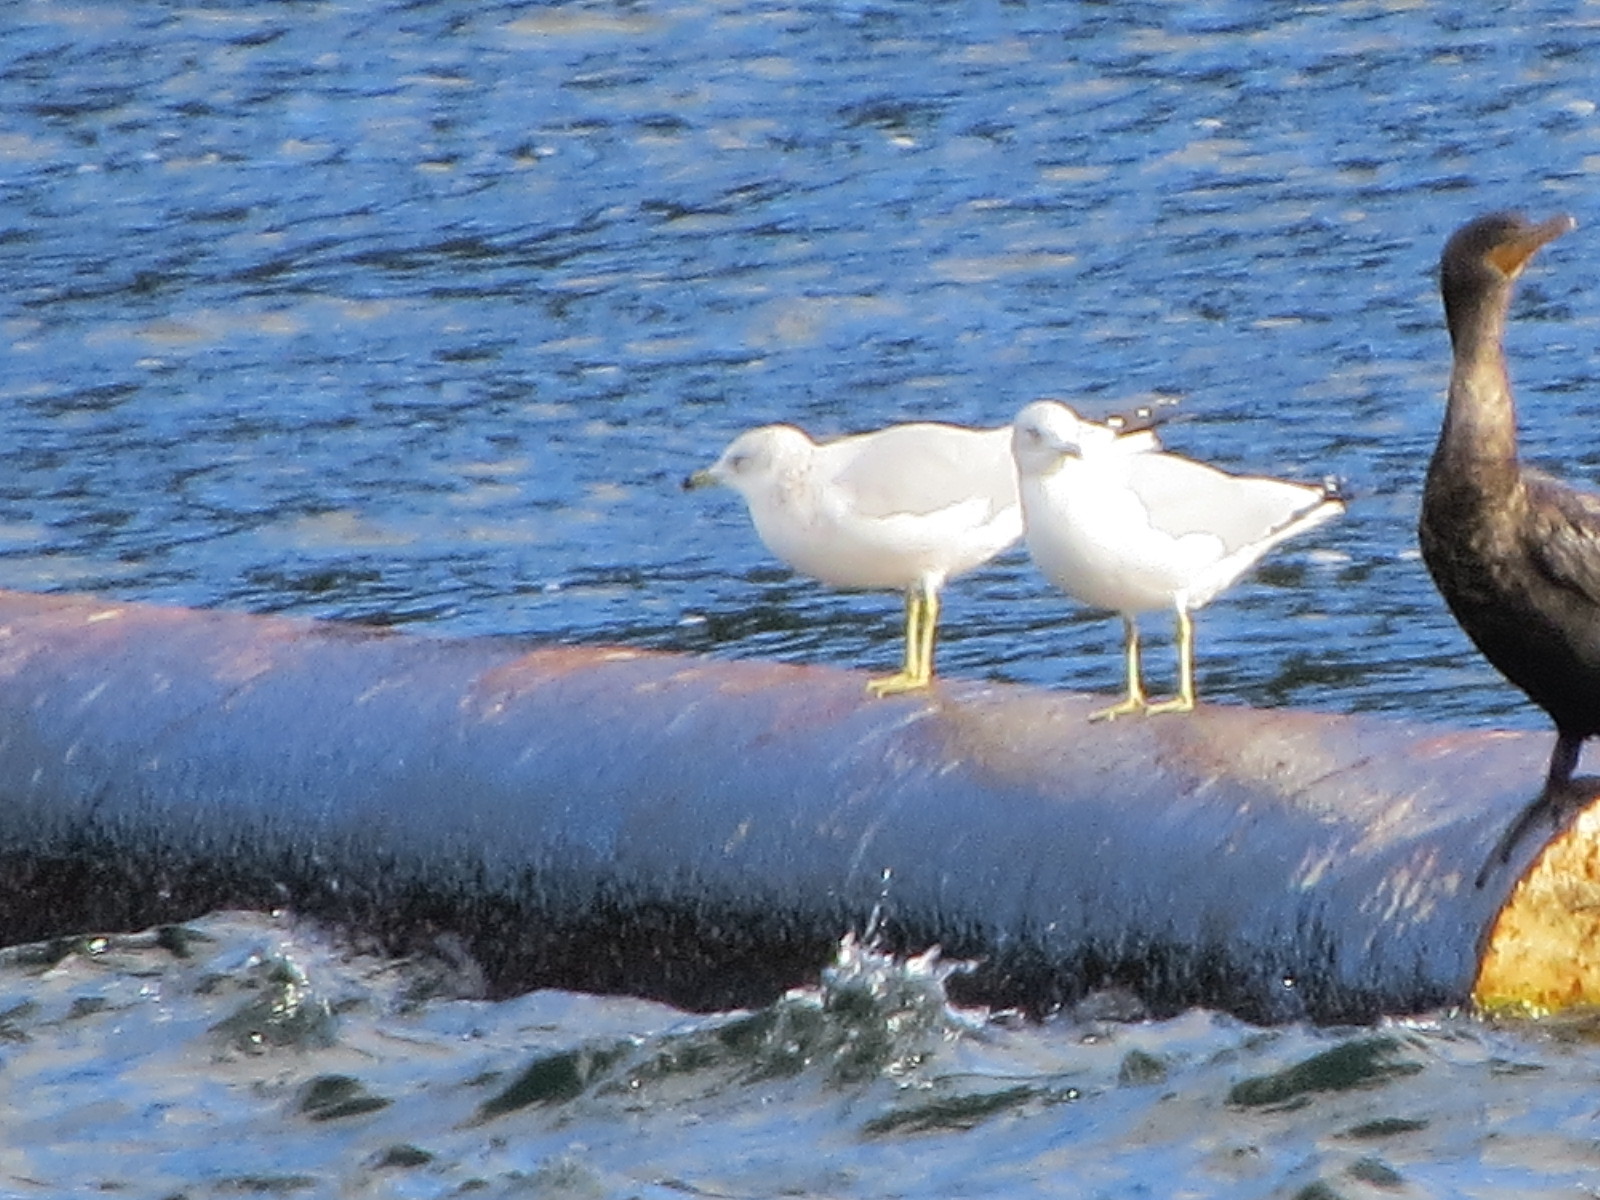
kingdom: Animalia
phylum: Chordata
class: Aves
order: Charadriiformes
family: Laridae
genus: Larus
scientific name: Larus delawarensis
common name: Ring-billed gull
